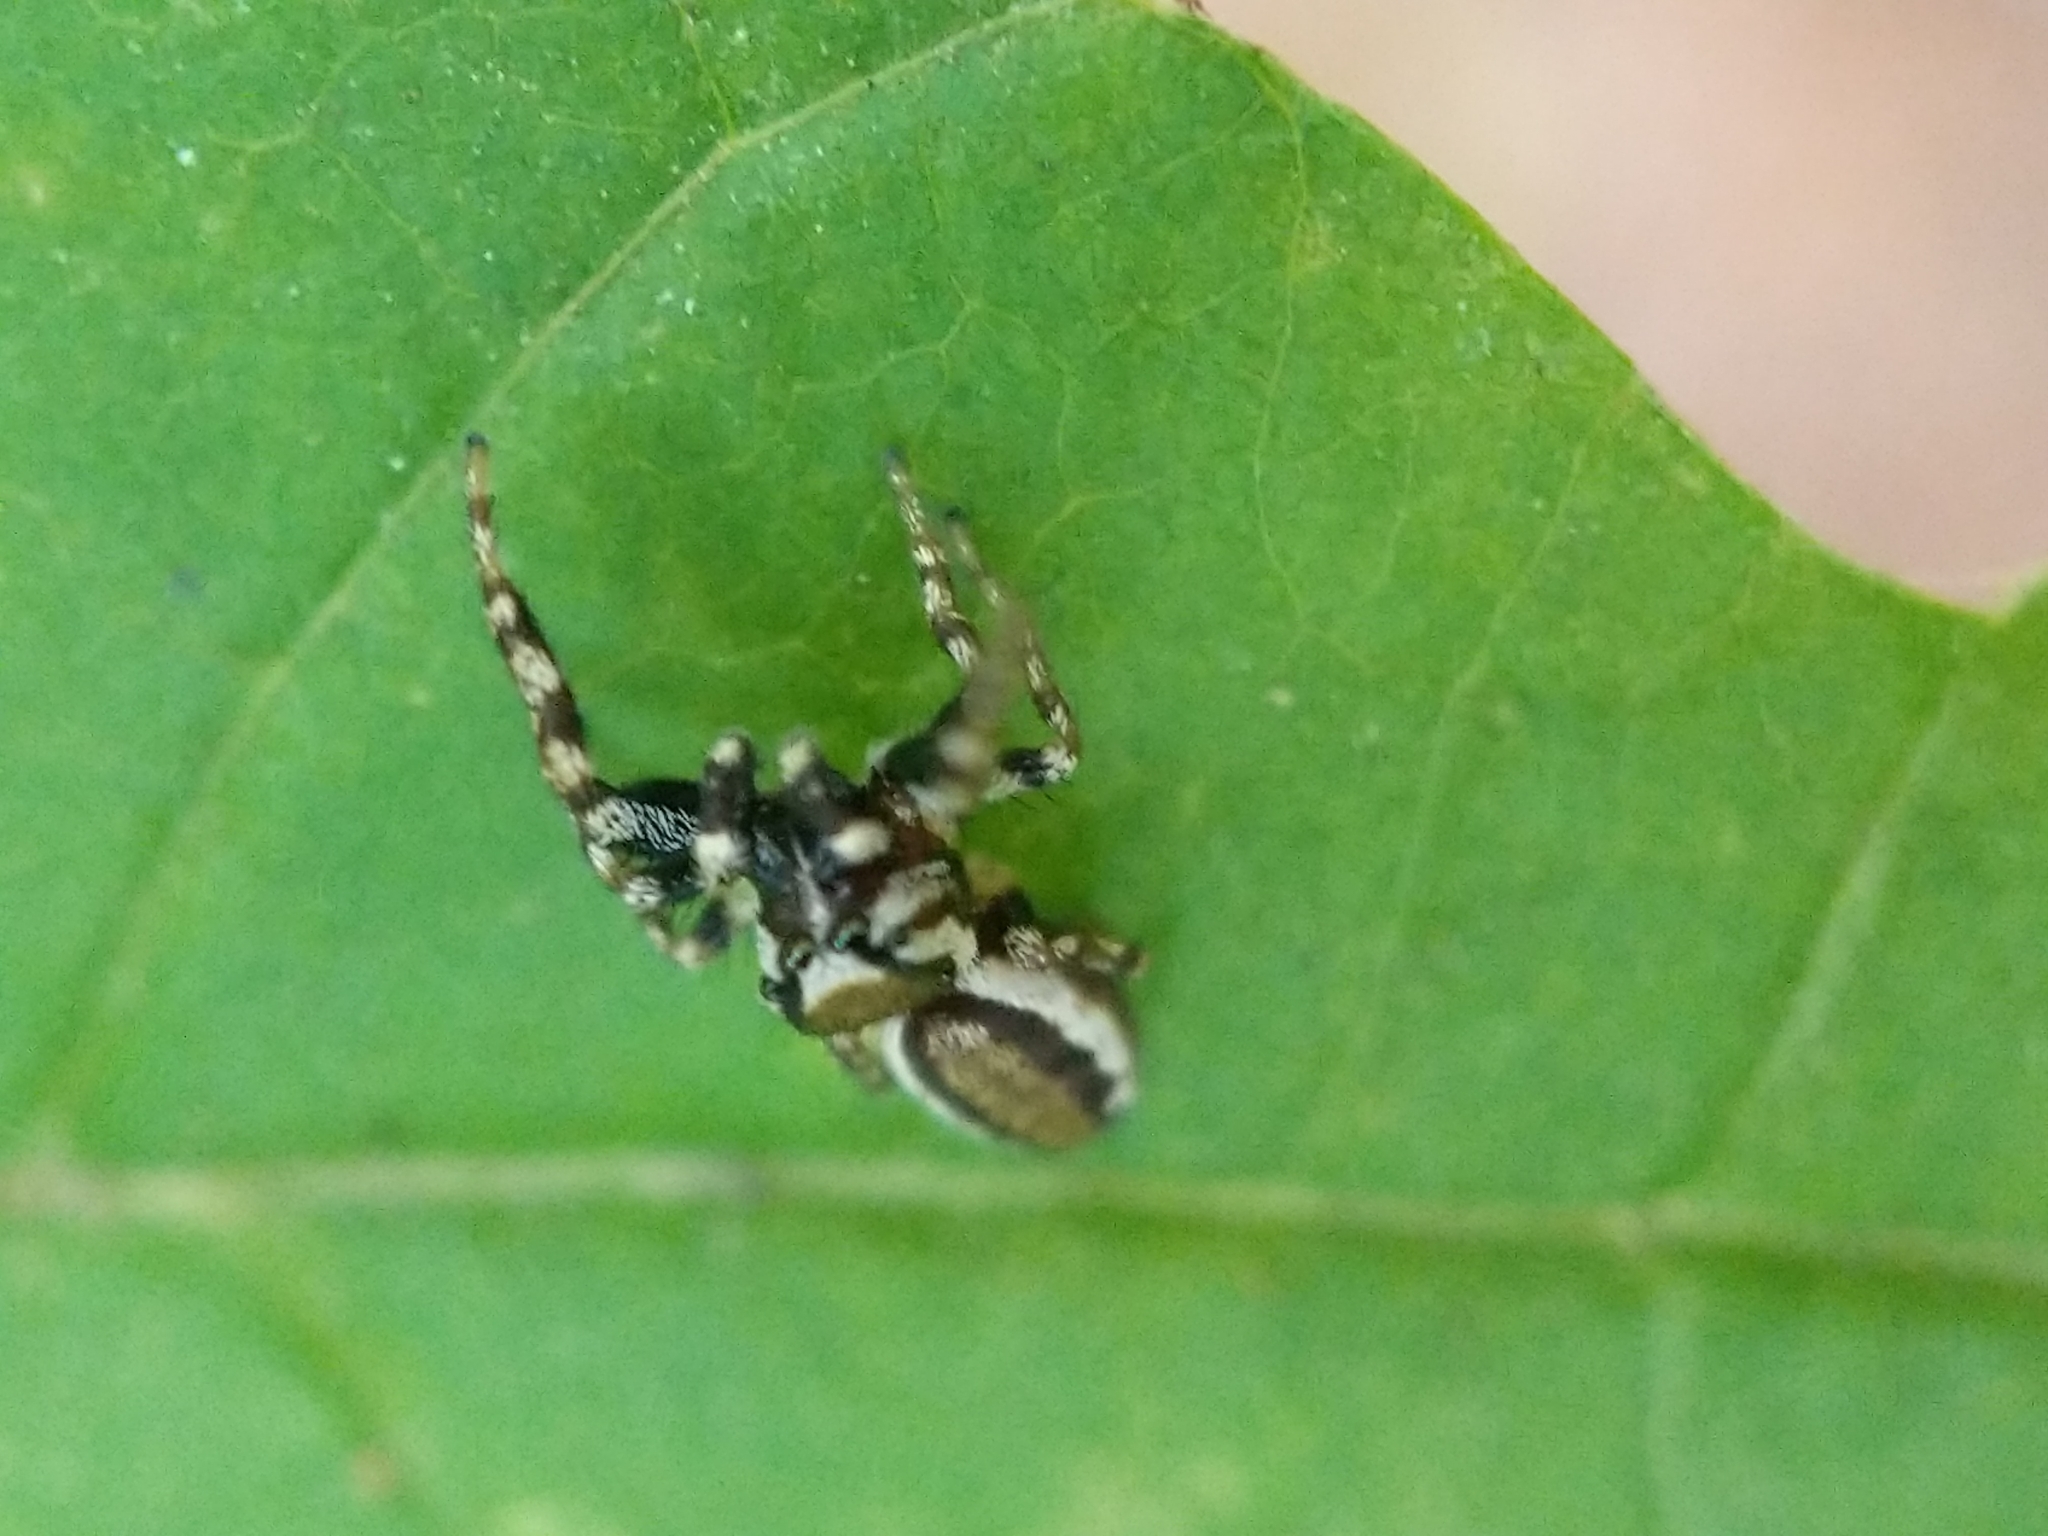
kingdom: Animalia
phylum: Arthropoda
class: Arachnida
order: Araneae
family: Salticidae
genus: Pelegrina
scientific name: Pelegrina proterva
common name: Common white-cheeked jumping spider
